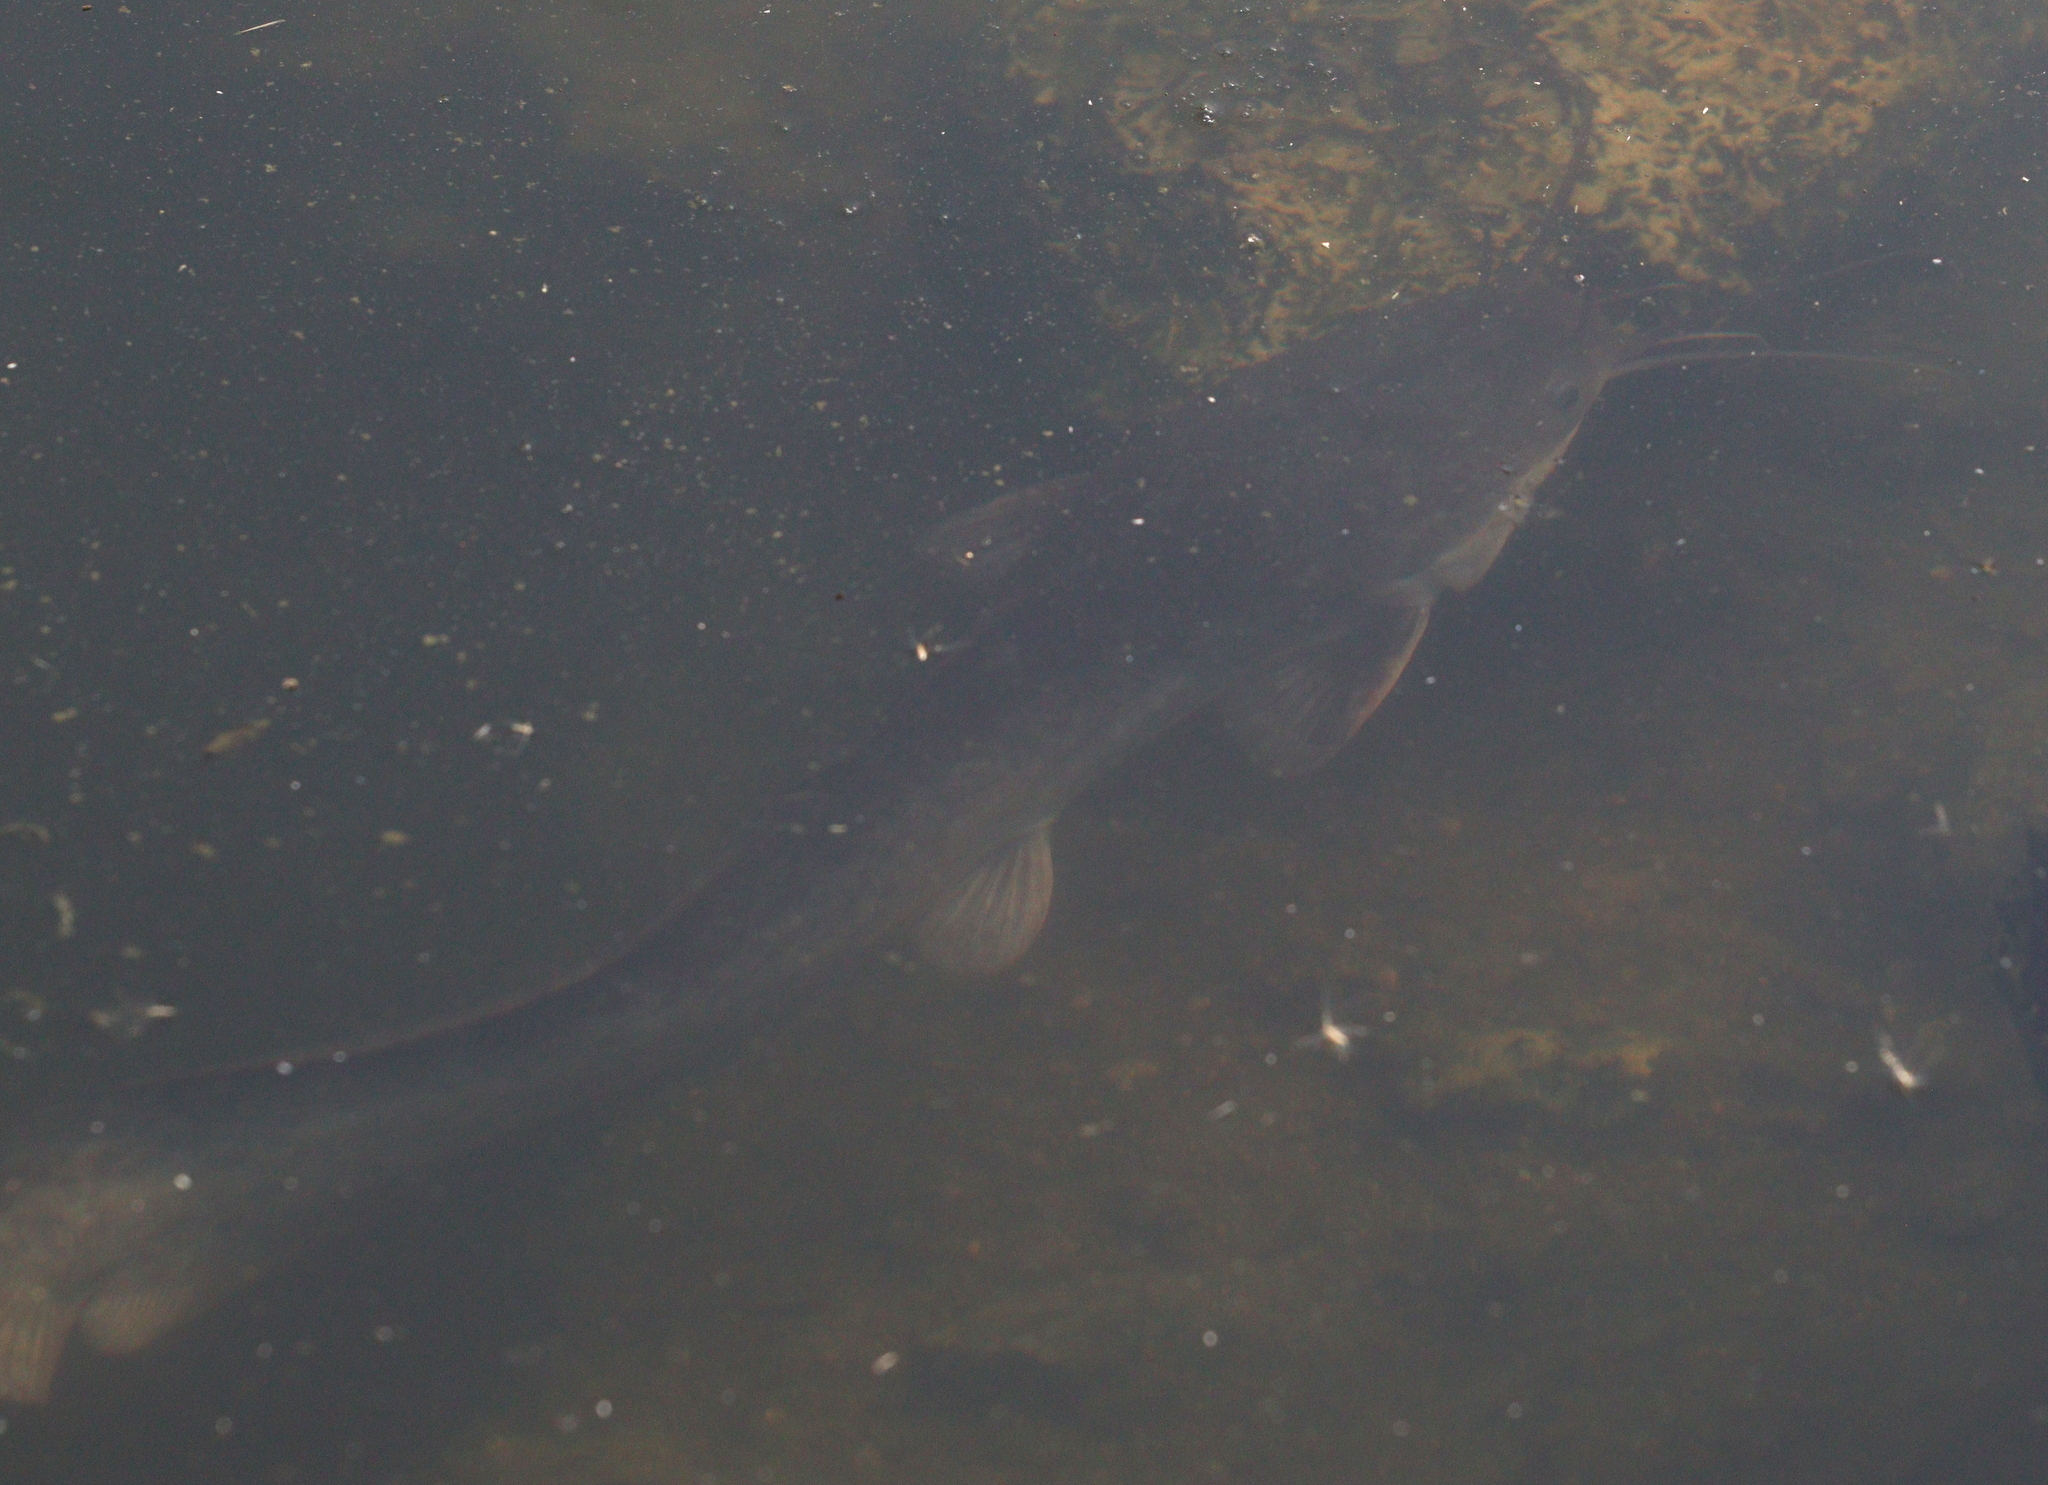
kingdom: Animalia
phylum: Chordata
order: Siluriformes
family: Clariidae
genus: Clarias
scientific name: Clarias gariepinus
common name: African catfish
